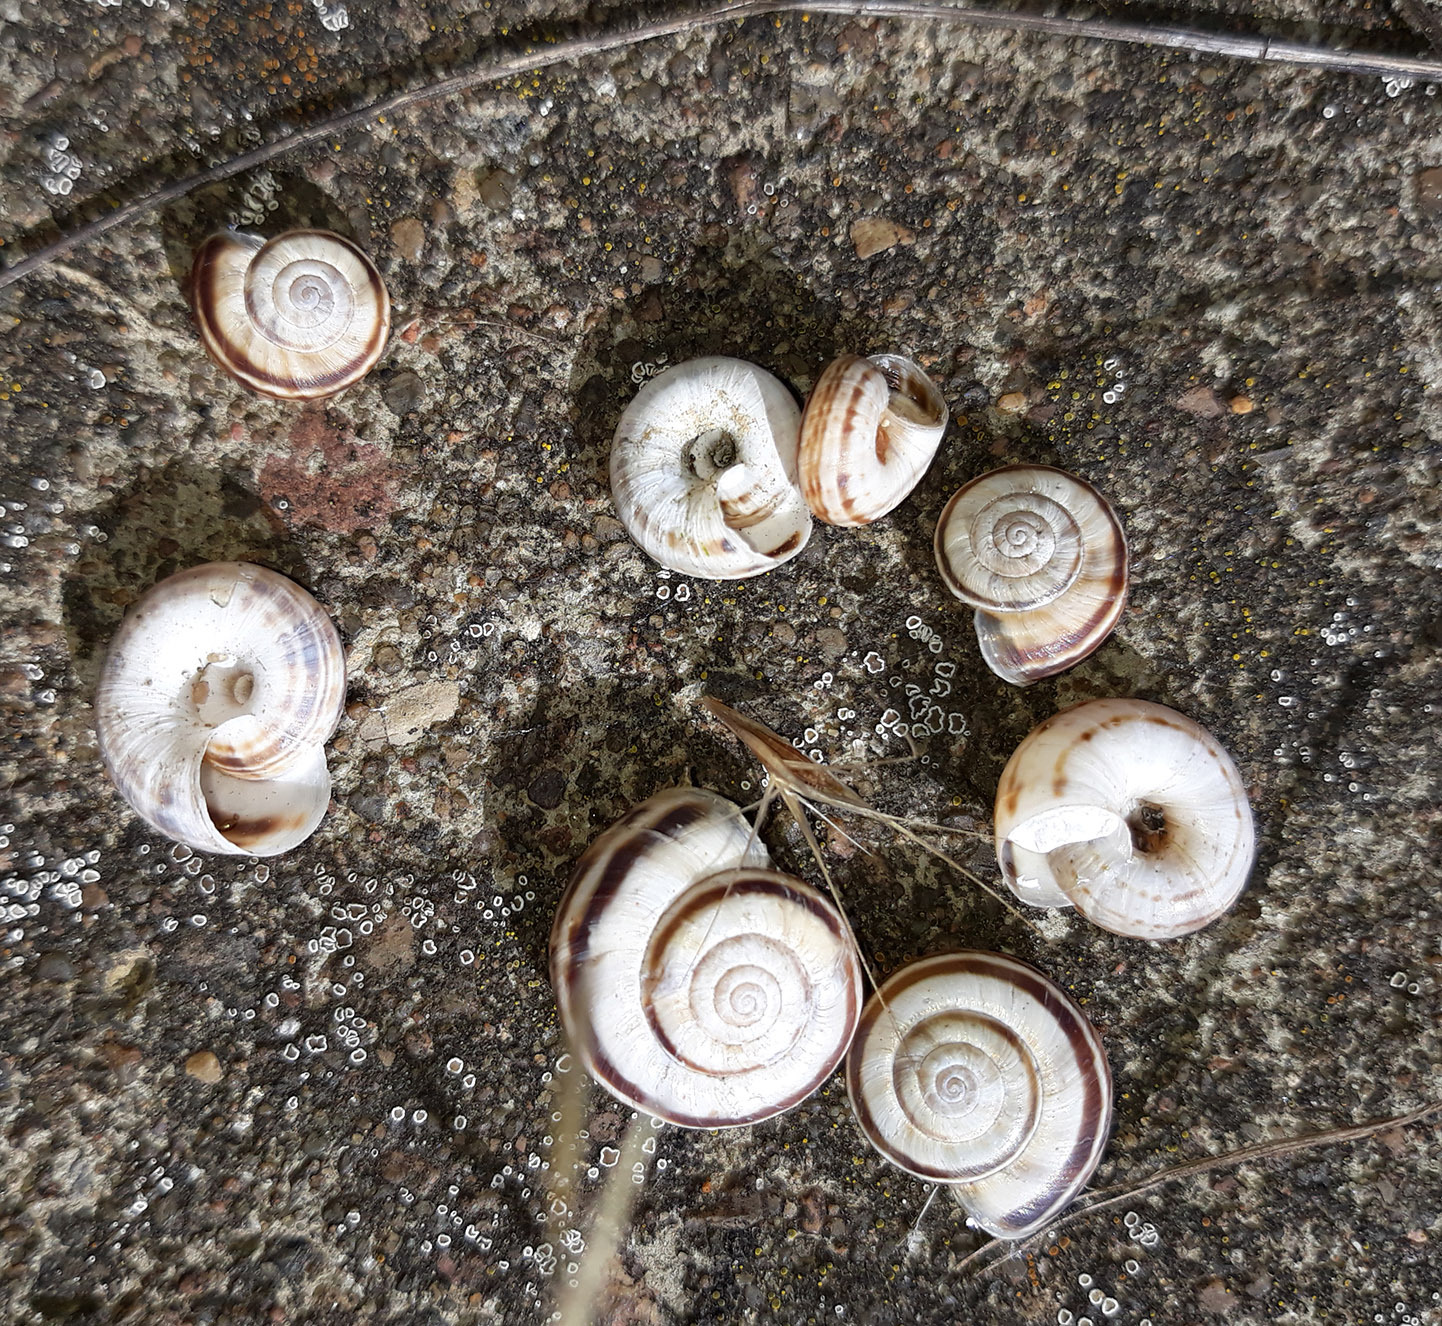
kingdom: Animalia
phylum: Mollusca
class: Gastropoda
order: Stylommatophora
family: Geomitridae
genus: Xerolenta
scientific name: Xerolenta obvia
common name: White heath snail
